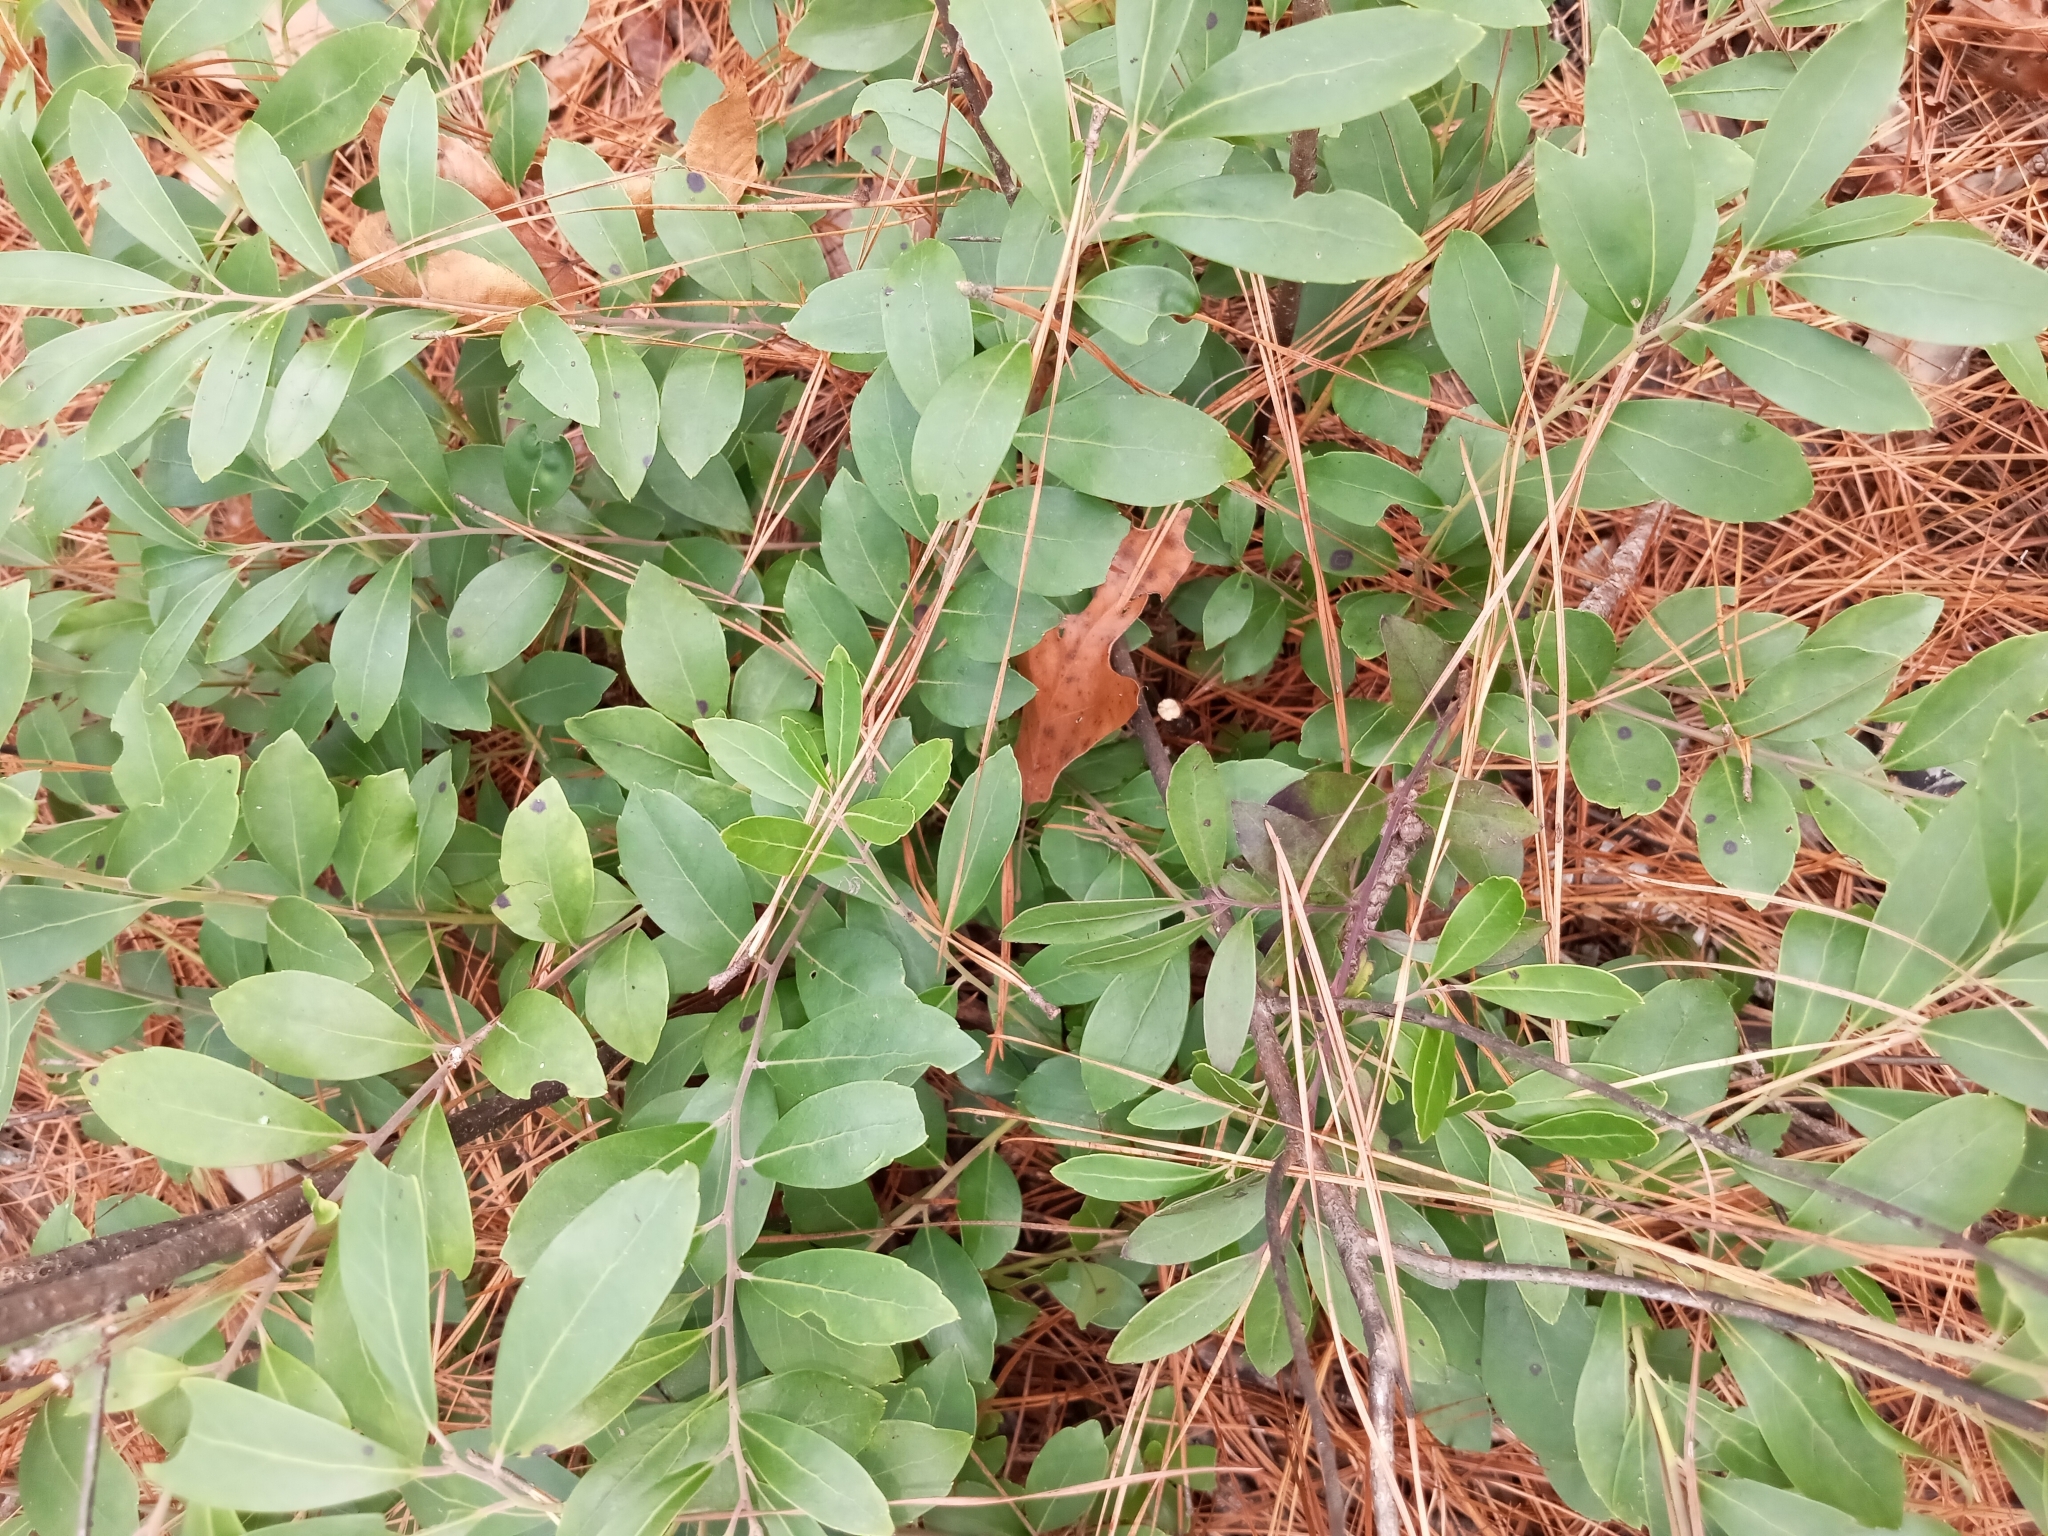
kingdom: Plantae
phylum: Tracheophyta
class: Magnoliopsida
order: Aquifoliales
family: Aquifoliaceae
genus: Ilex
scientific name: Ilex glabra
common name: Bitter gallberry
